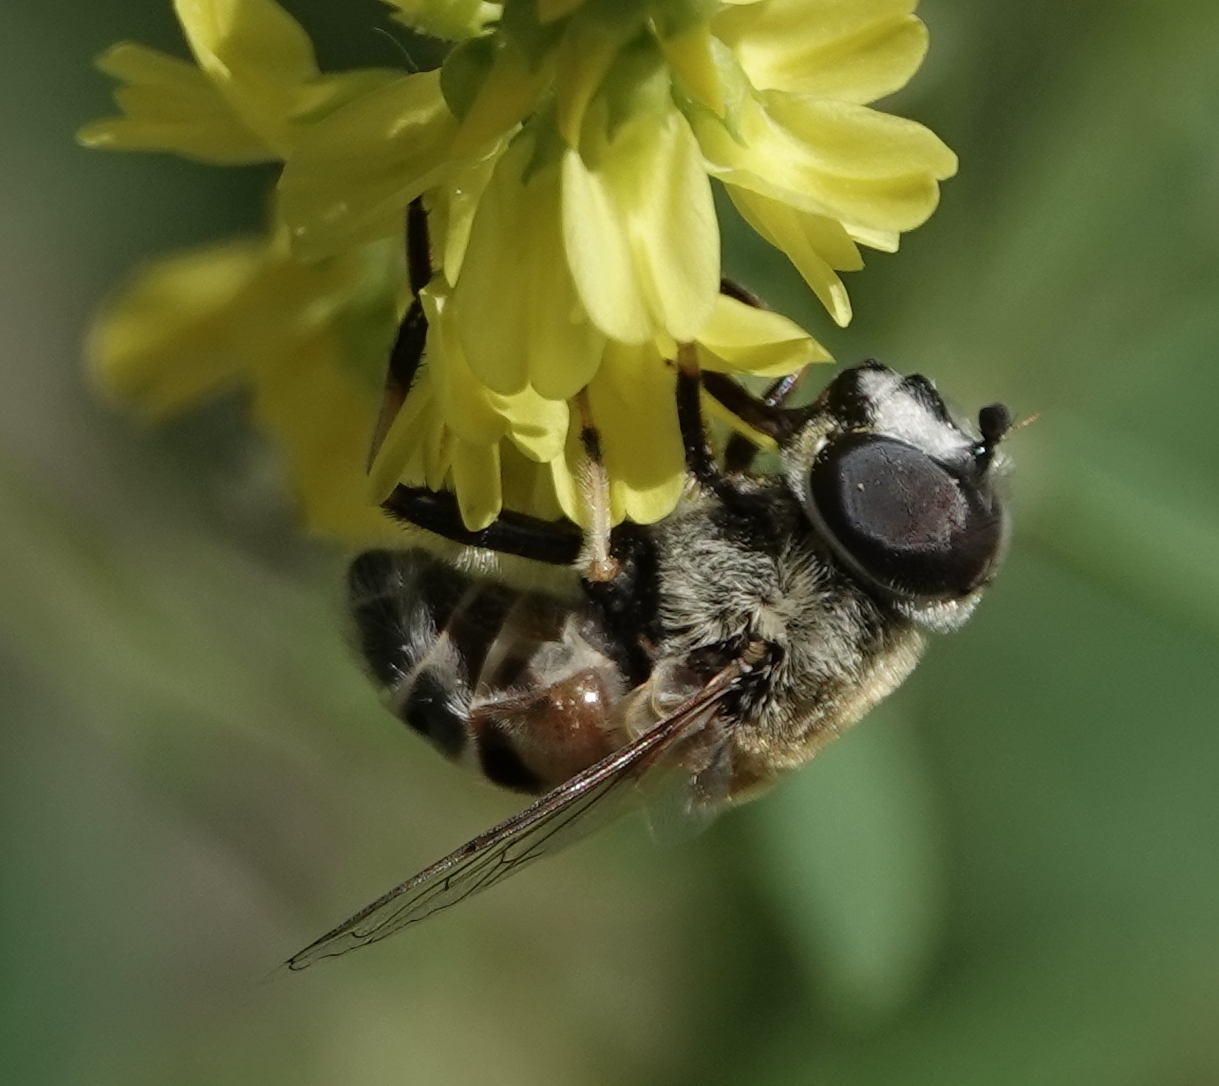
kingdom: Animalia
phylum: Arthropoda
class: Insecta
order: Diptera
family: Syrphidae
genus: Eristalis
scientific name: Eristalis stipator
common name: Yellow-shouldered drone fly
